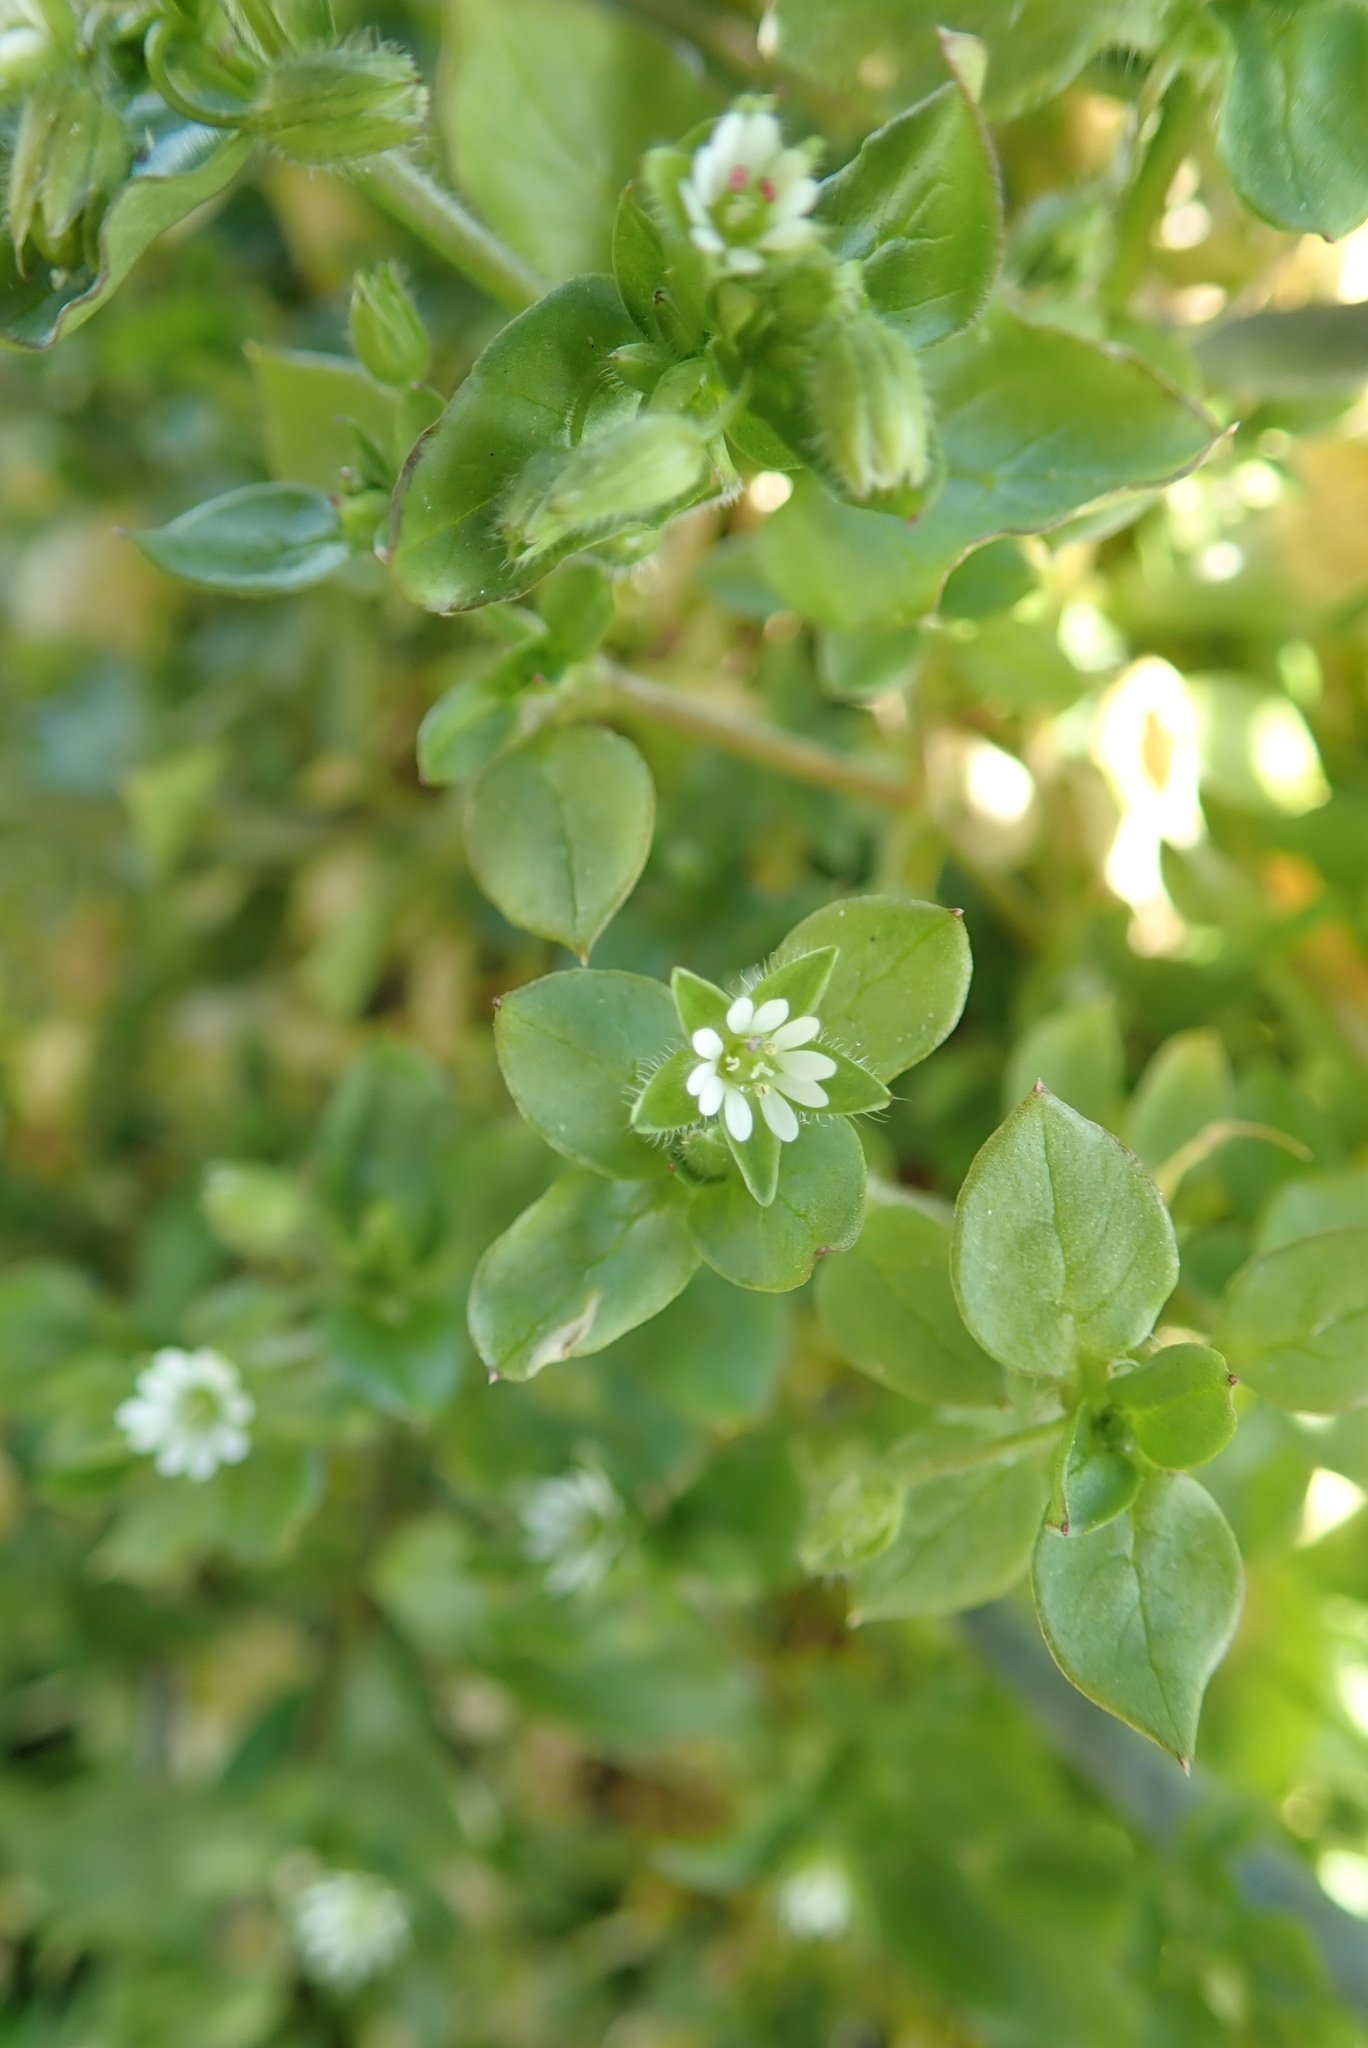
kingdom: Plantae
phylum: Tracheophyta
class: Magnoliopsida
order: Caryophyllales
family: Caryophyllaceae
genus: Stellaria
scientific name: Stellaria media
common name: Common chickweed
